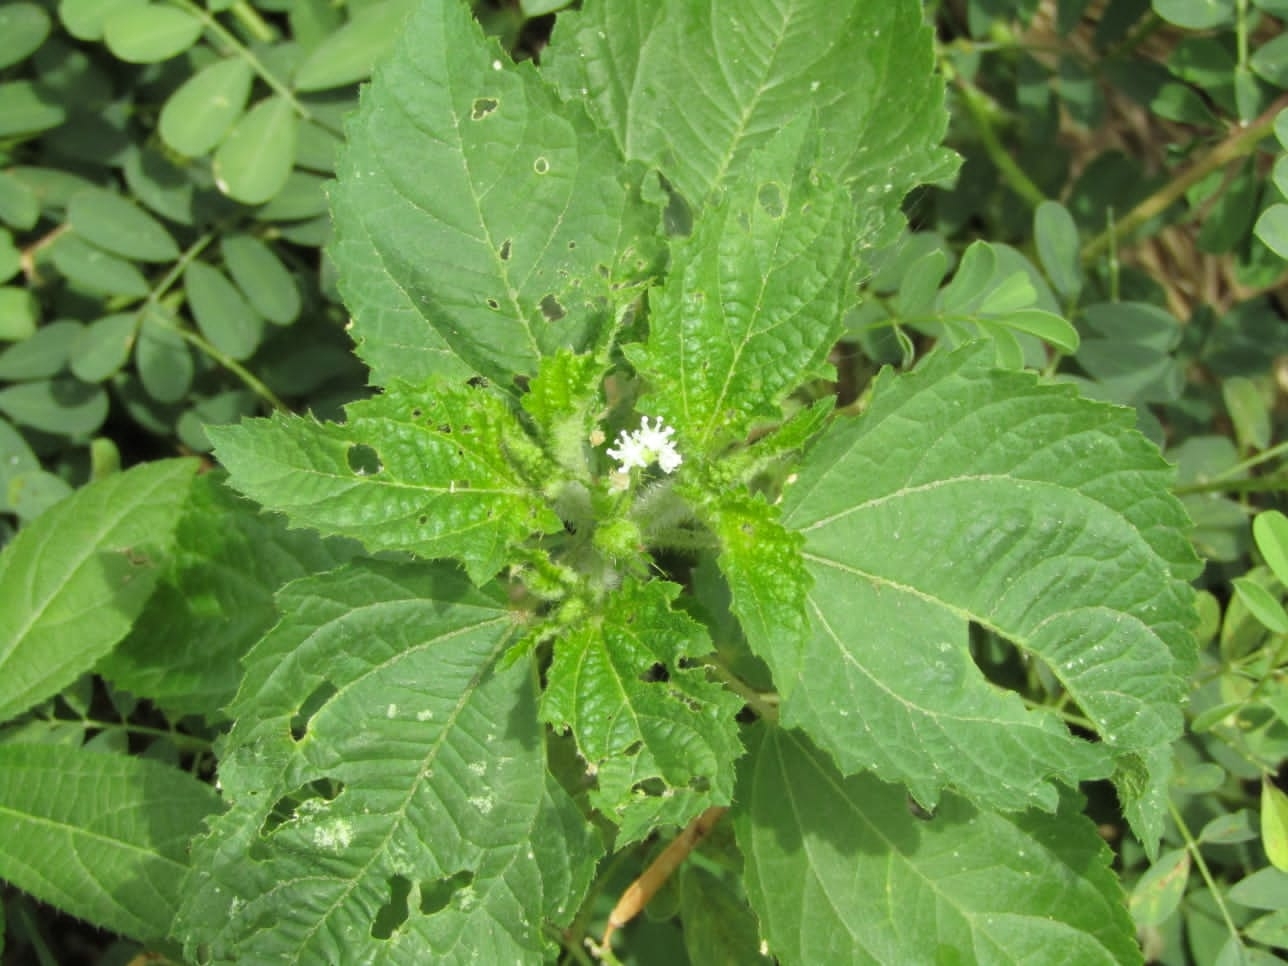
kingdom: Plantae
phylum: Tracheophyta
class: Magnoliopsida
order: Malpighiales
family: Euphorbiaceae
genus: Croton
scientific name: Croton hirtus
